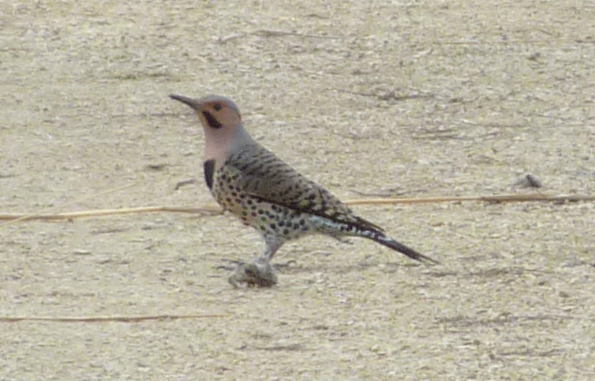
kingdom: Animalia
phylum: Chordata
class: Aves
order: Piciformes
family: Picidae
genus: Colaptes
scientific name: Colaptes auratus
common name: Northern flicker
